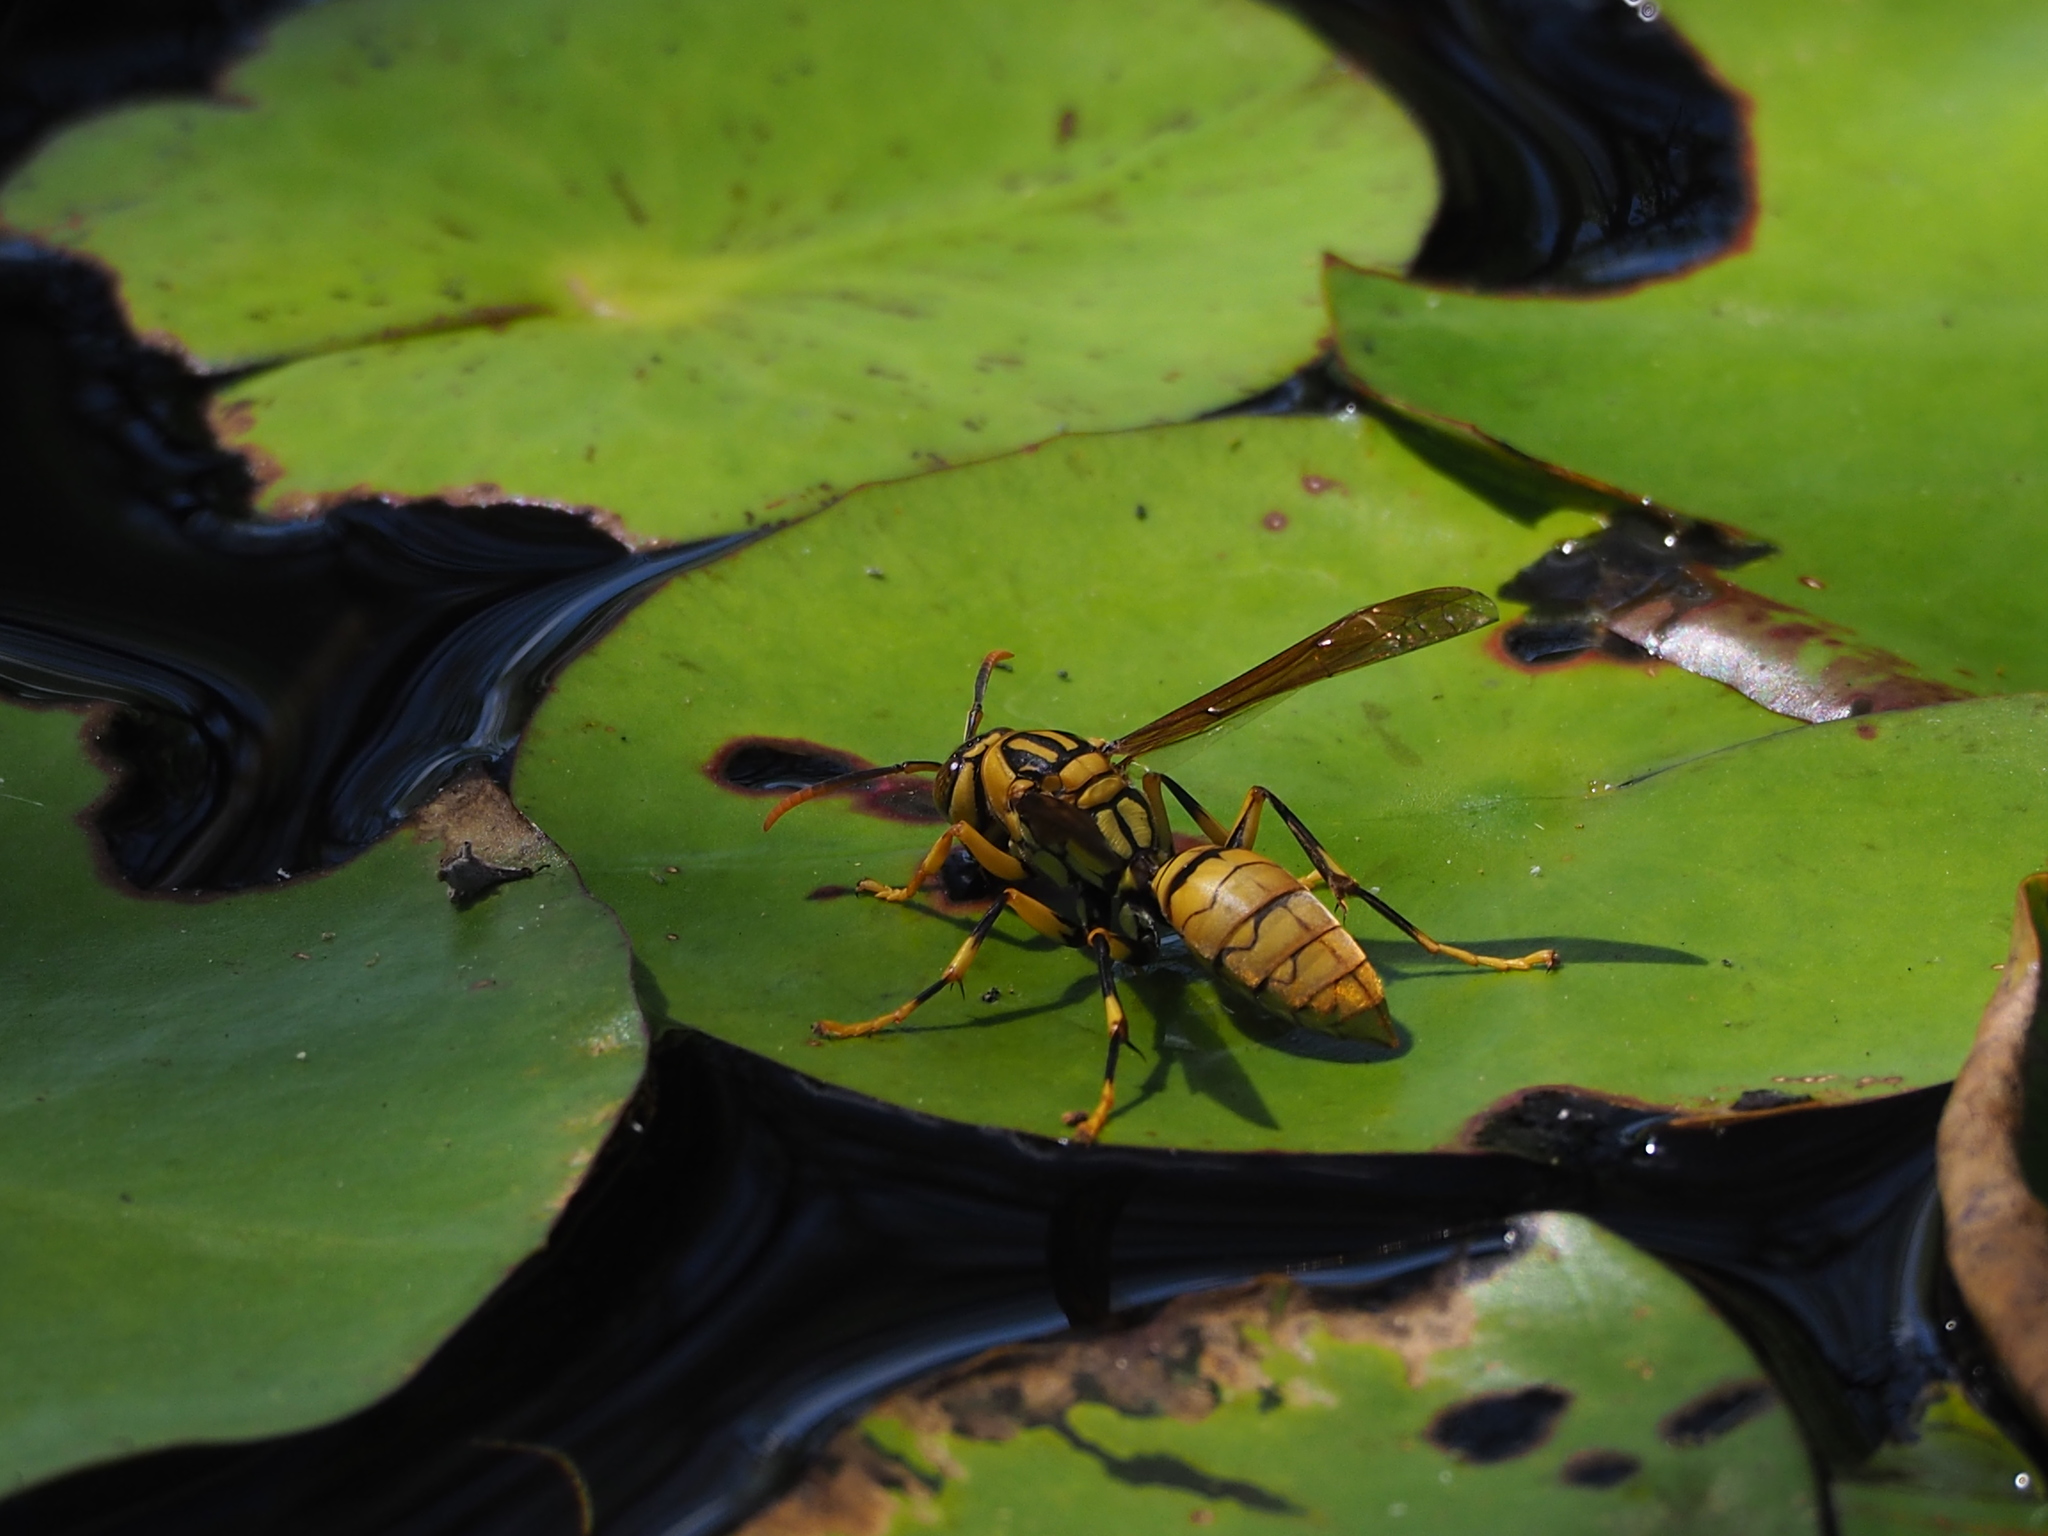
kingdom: Animalia
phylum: Arthropoda
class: Insecta
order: Hymenoptera
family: Eumenidae
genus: Polistes
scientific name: Polistes rothneyi
